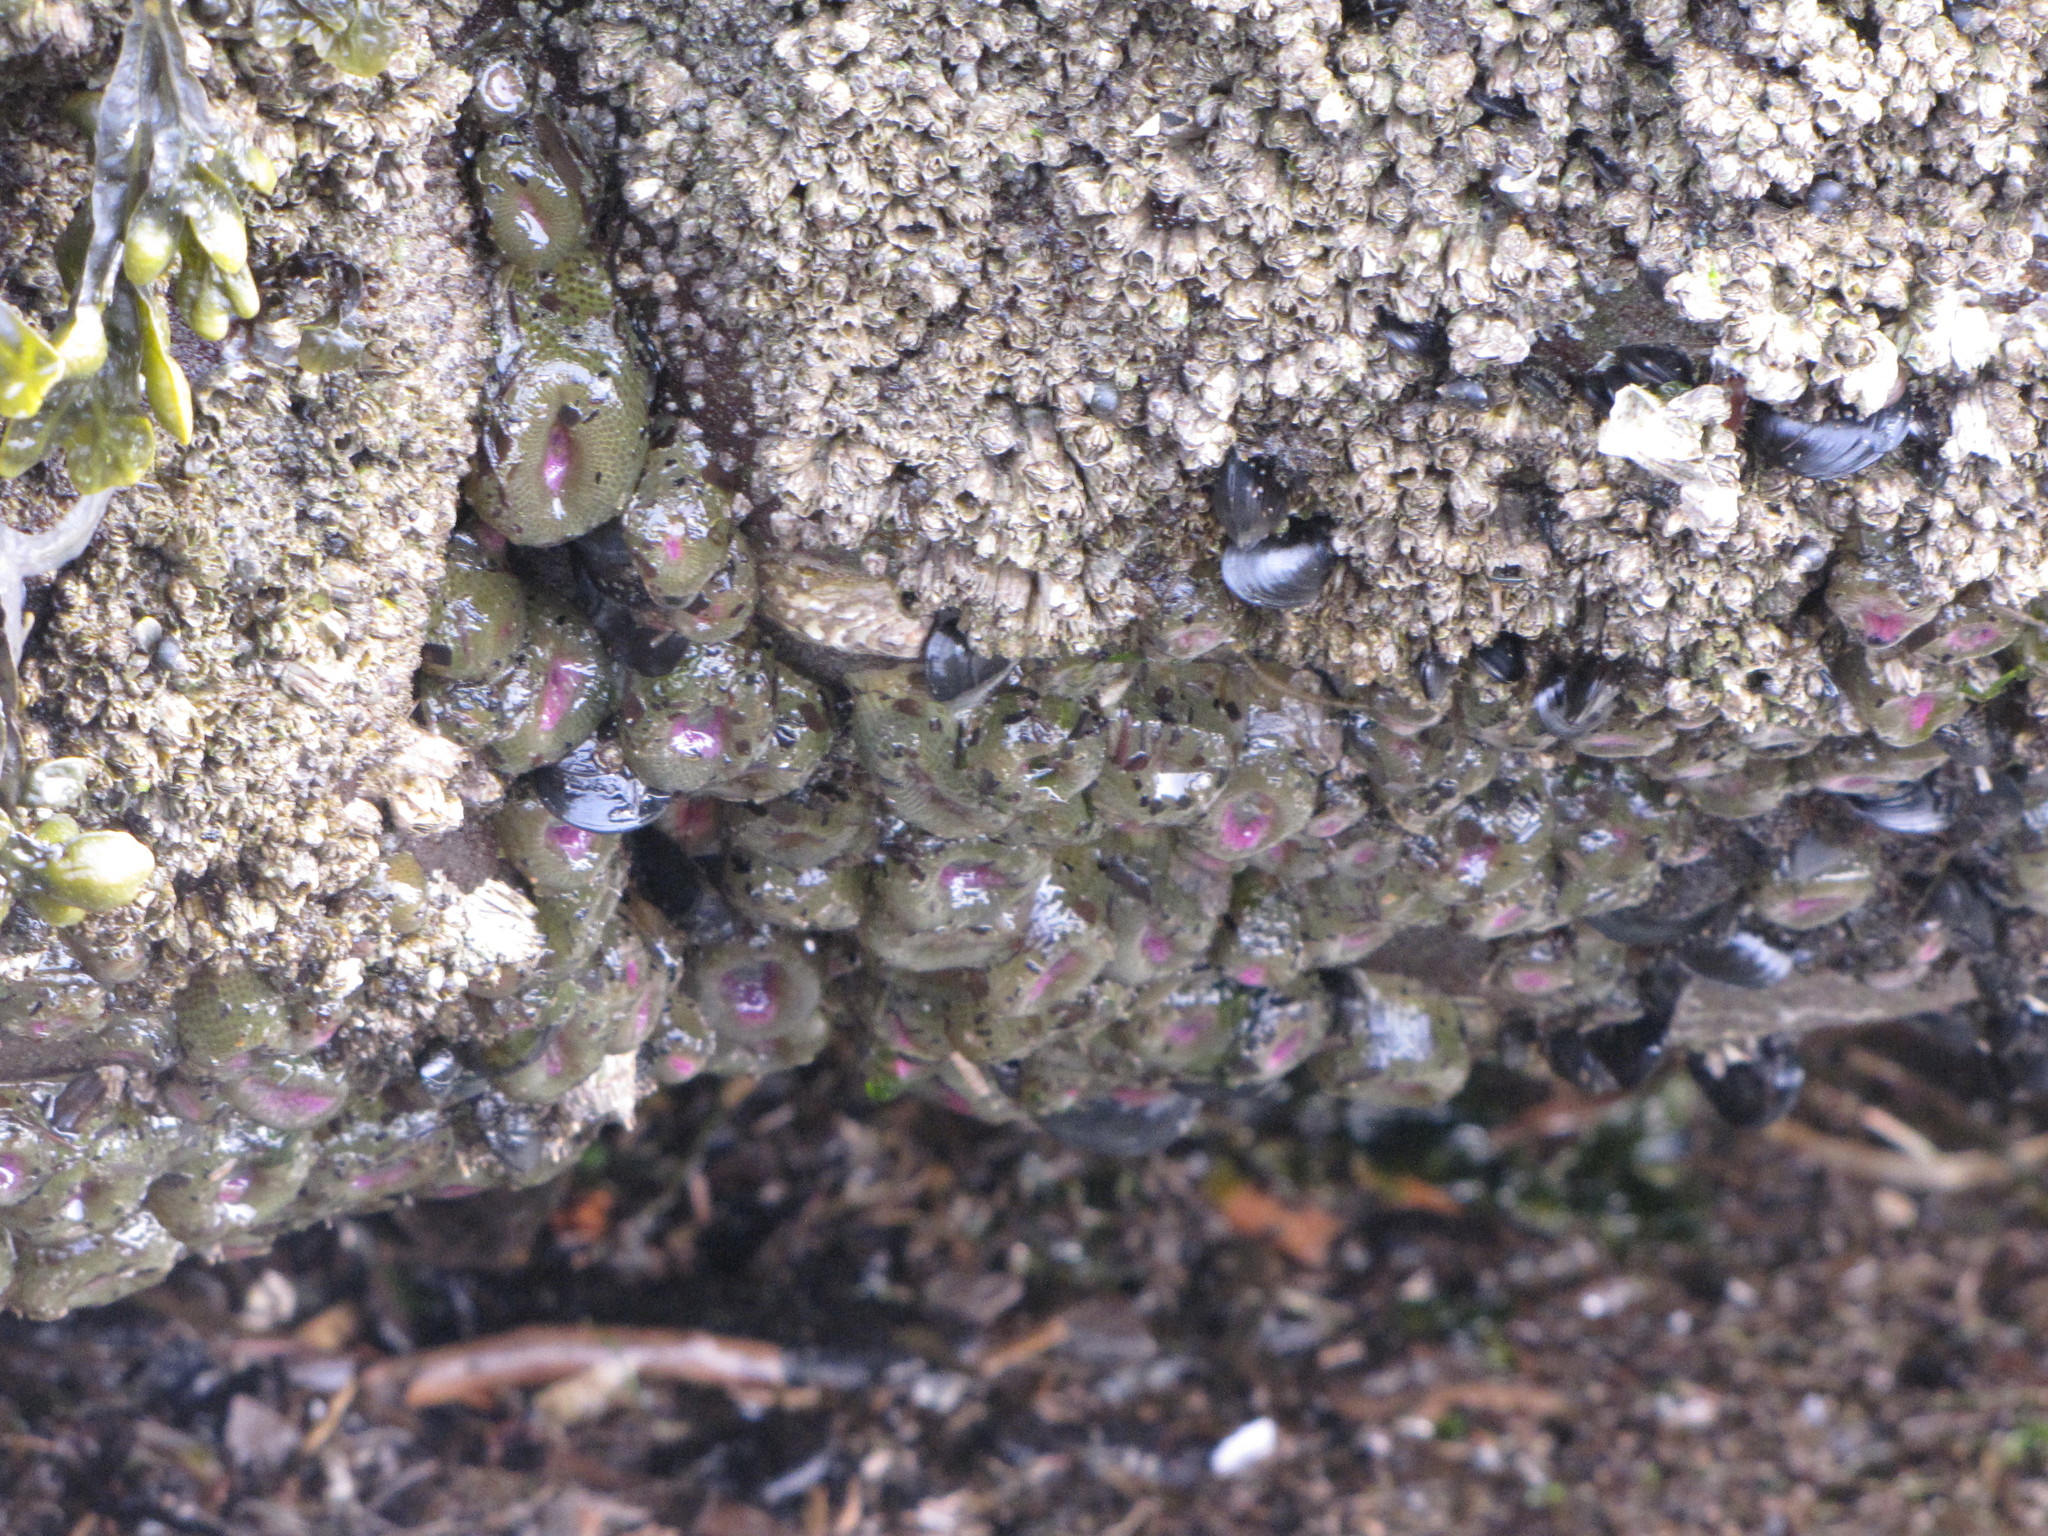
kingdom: Animalia
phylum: Cnidaria
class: Anthozoa
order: Actiniaria
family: Actiniidae
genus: Anthopleura
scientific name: Anthopleura elegantissima
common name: Clonal anemone
